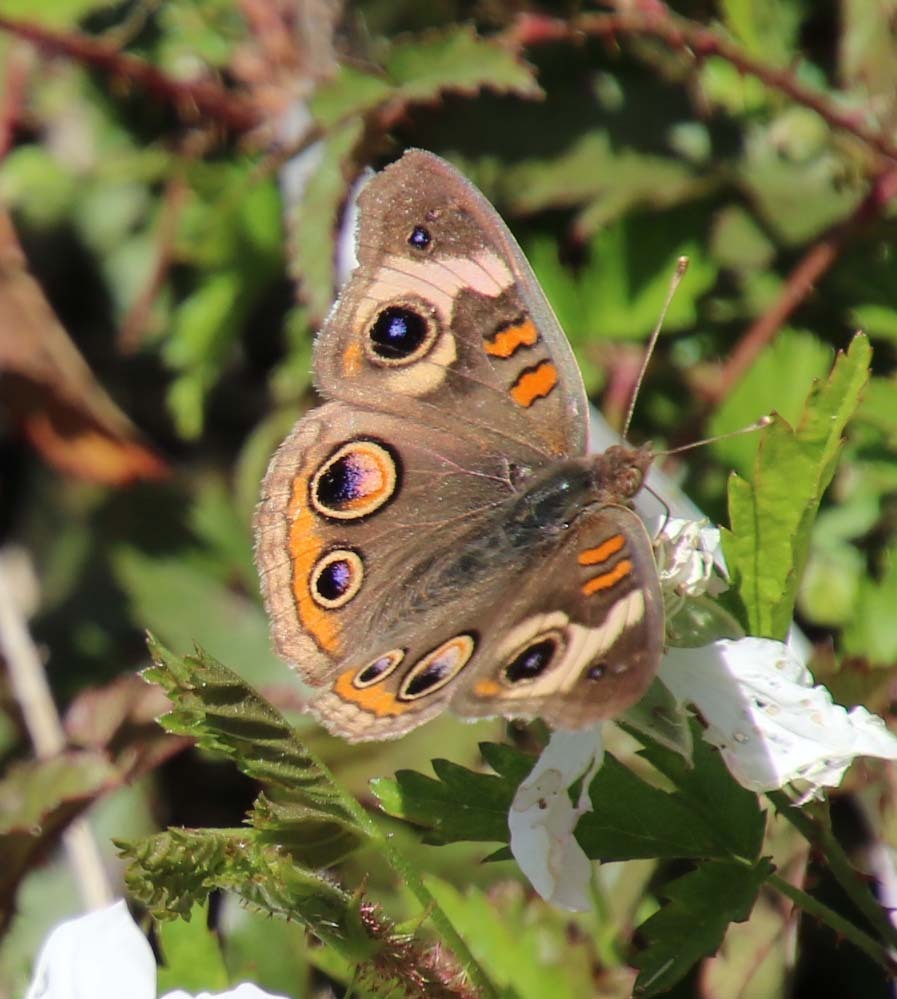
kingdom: Animalia
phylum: Arthropoda
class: Insecta
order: Lepidoptera
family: Nymphalidae
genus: Junonia
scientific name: Junonia coenia
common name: Common buckeye
